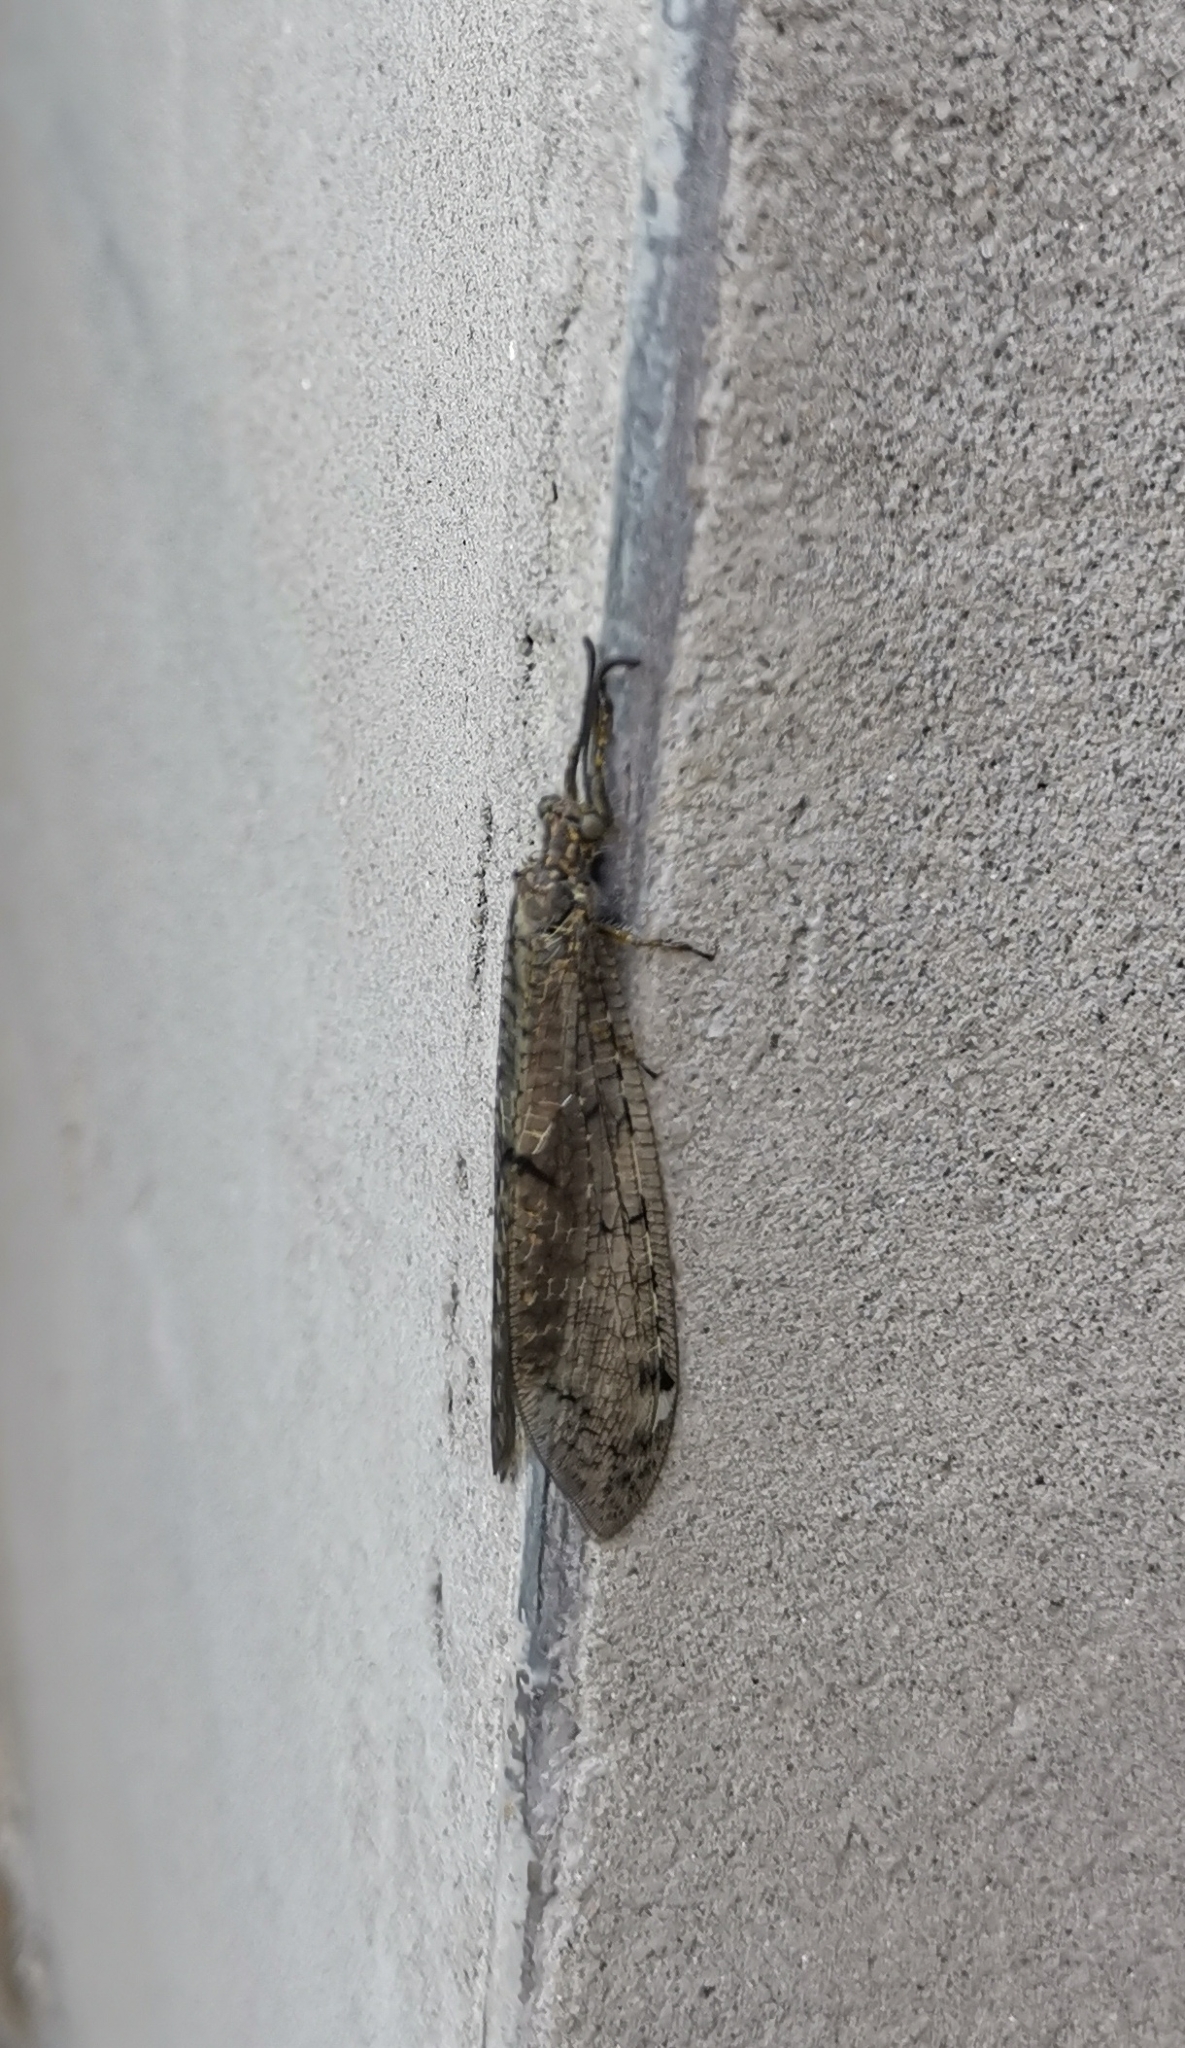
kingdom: Animalia
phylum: Arthropoda
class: Insecta
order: Neuroptera
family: Myrmeleontidae
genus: Distoleon
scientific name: Distoleon tetragrammicus
